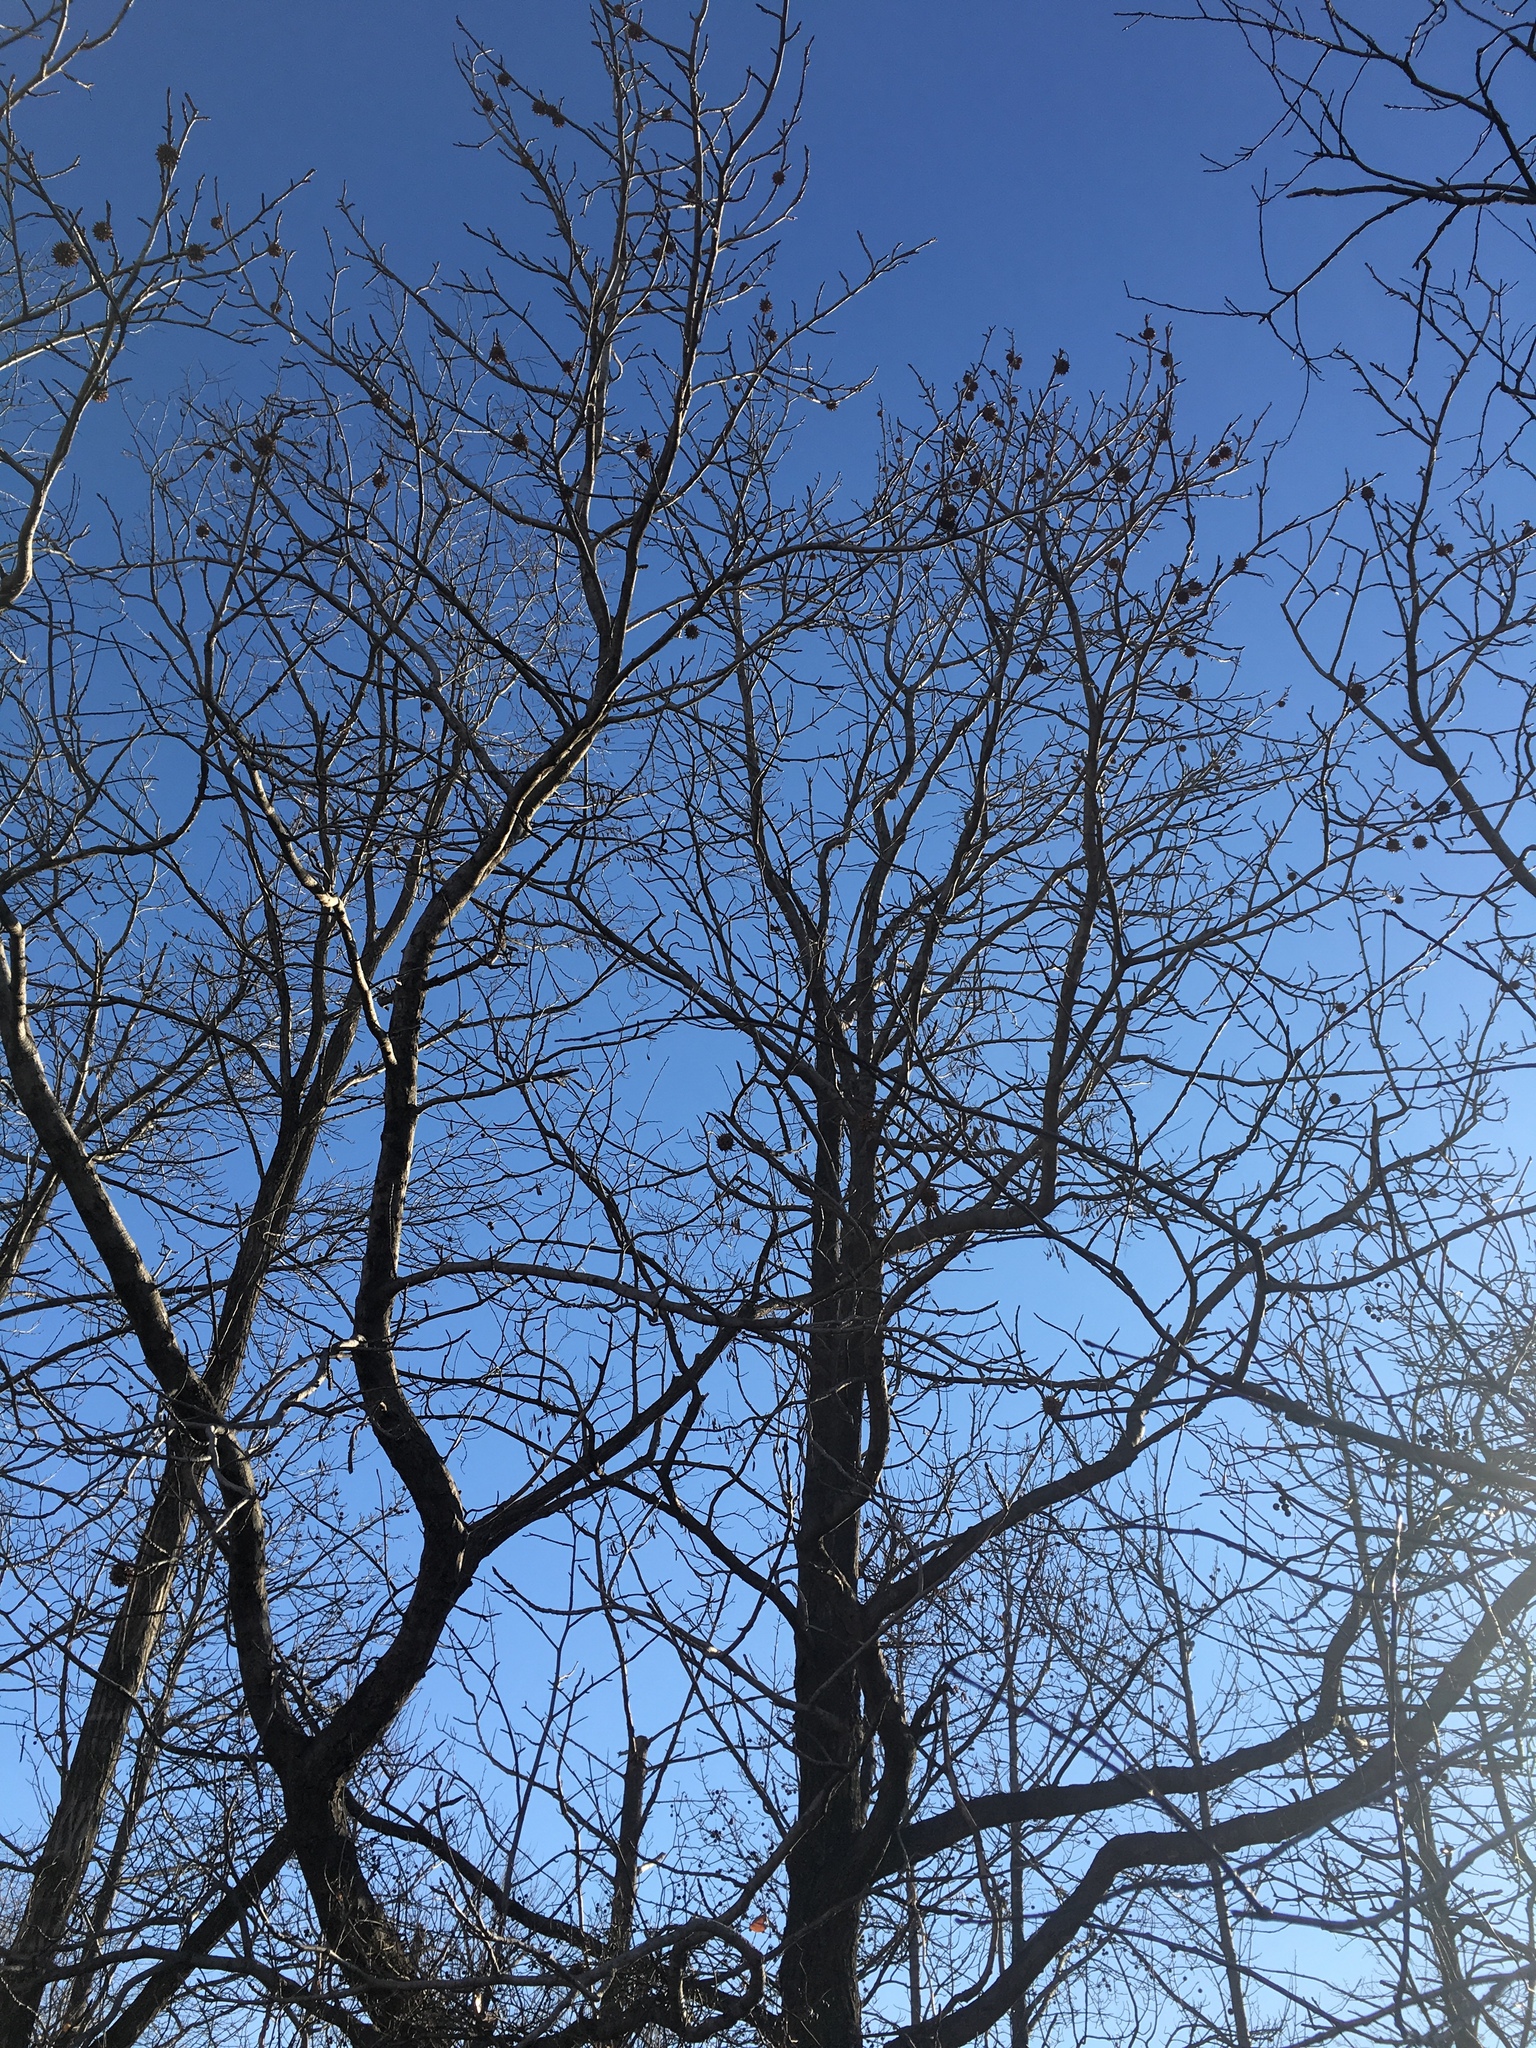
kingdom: Plantae
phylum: Tracheophyta
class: Magnoliopsida
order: Saxifragales
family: Altingiaceae
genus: Liquidambar
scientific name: Liquidambar styraciflua
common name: Sweet gum
